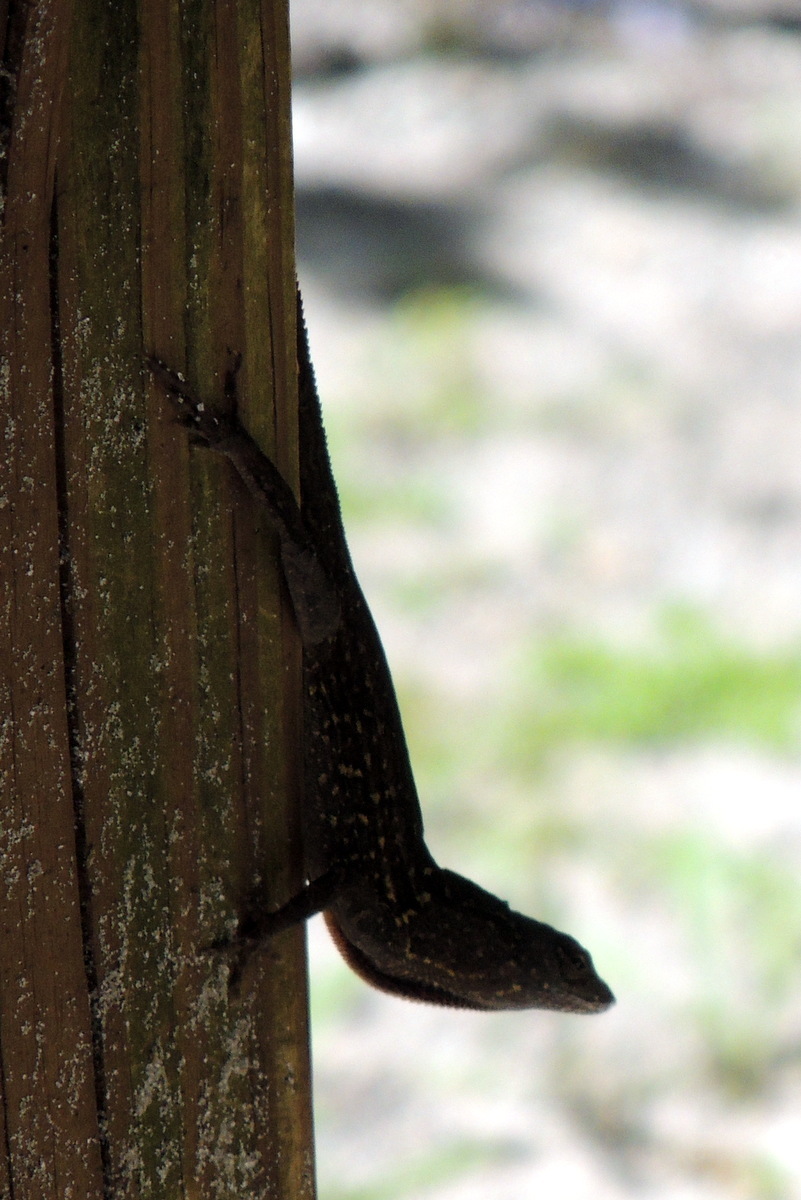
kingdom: Animalia
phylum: Chordata
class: Squamata
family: Dactyloidae
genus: Anolis
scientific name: Anolis sagrei
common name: Brown anole
